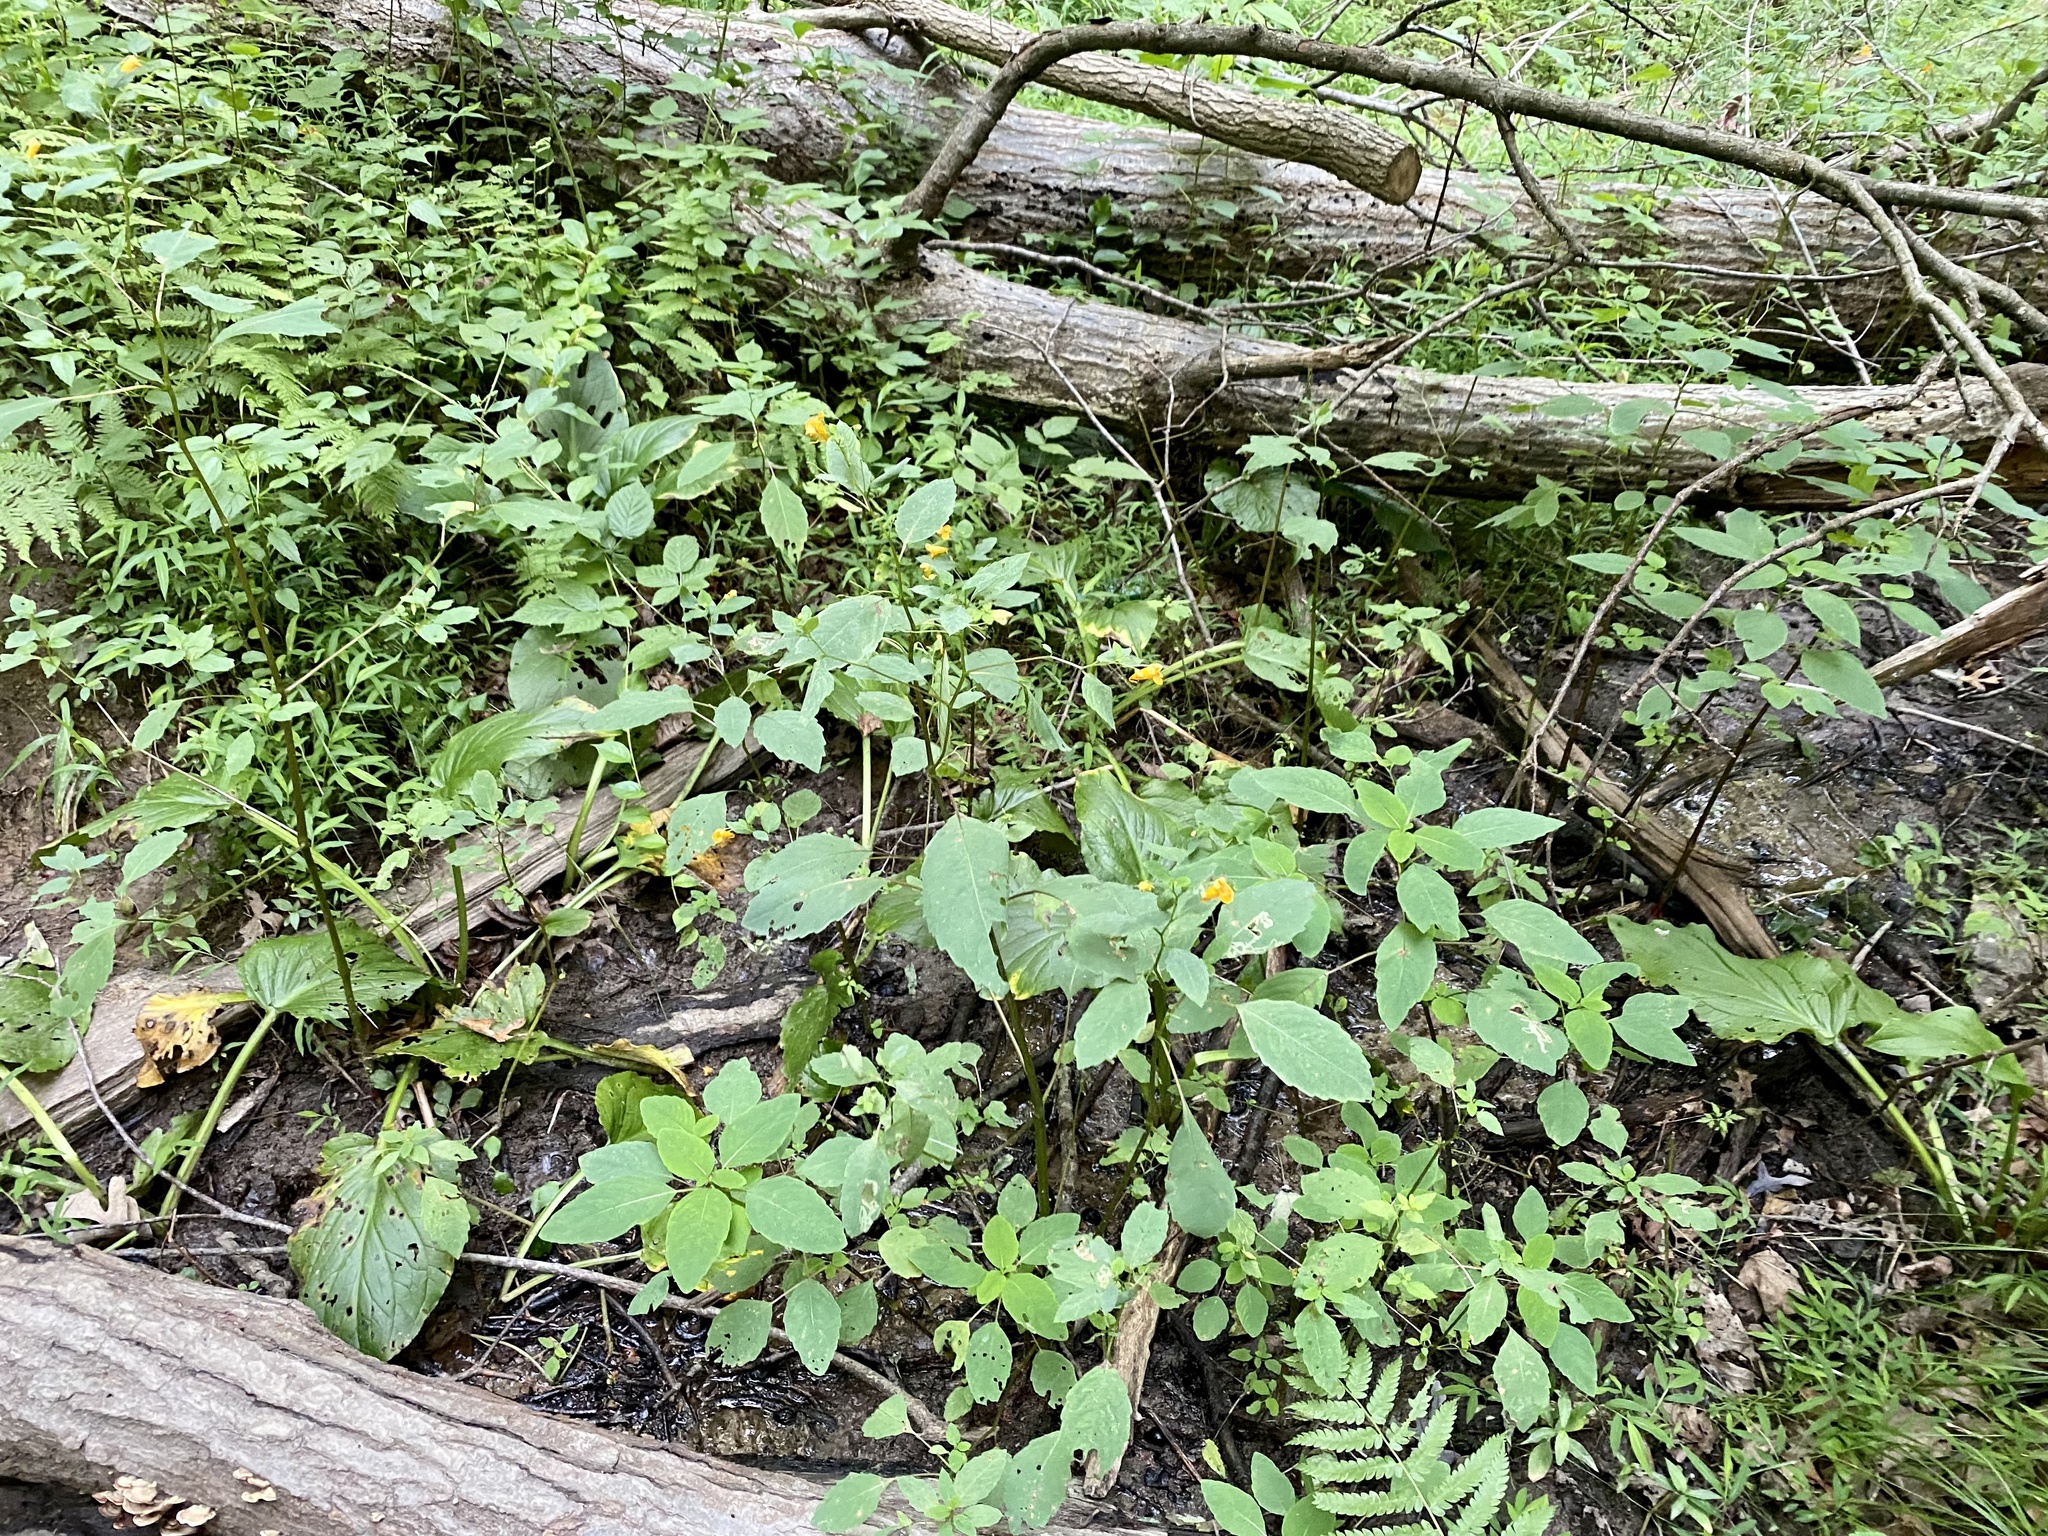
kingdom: Plantae
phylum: Tracheophyta
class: Magnoliopsida
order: Ericales
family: Balsaminaceae
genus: Impatiens
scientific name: Impatiens capensis
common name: Orange balsam
